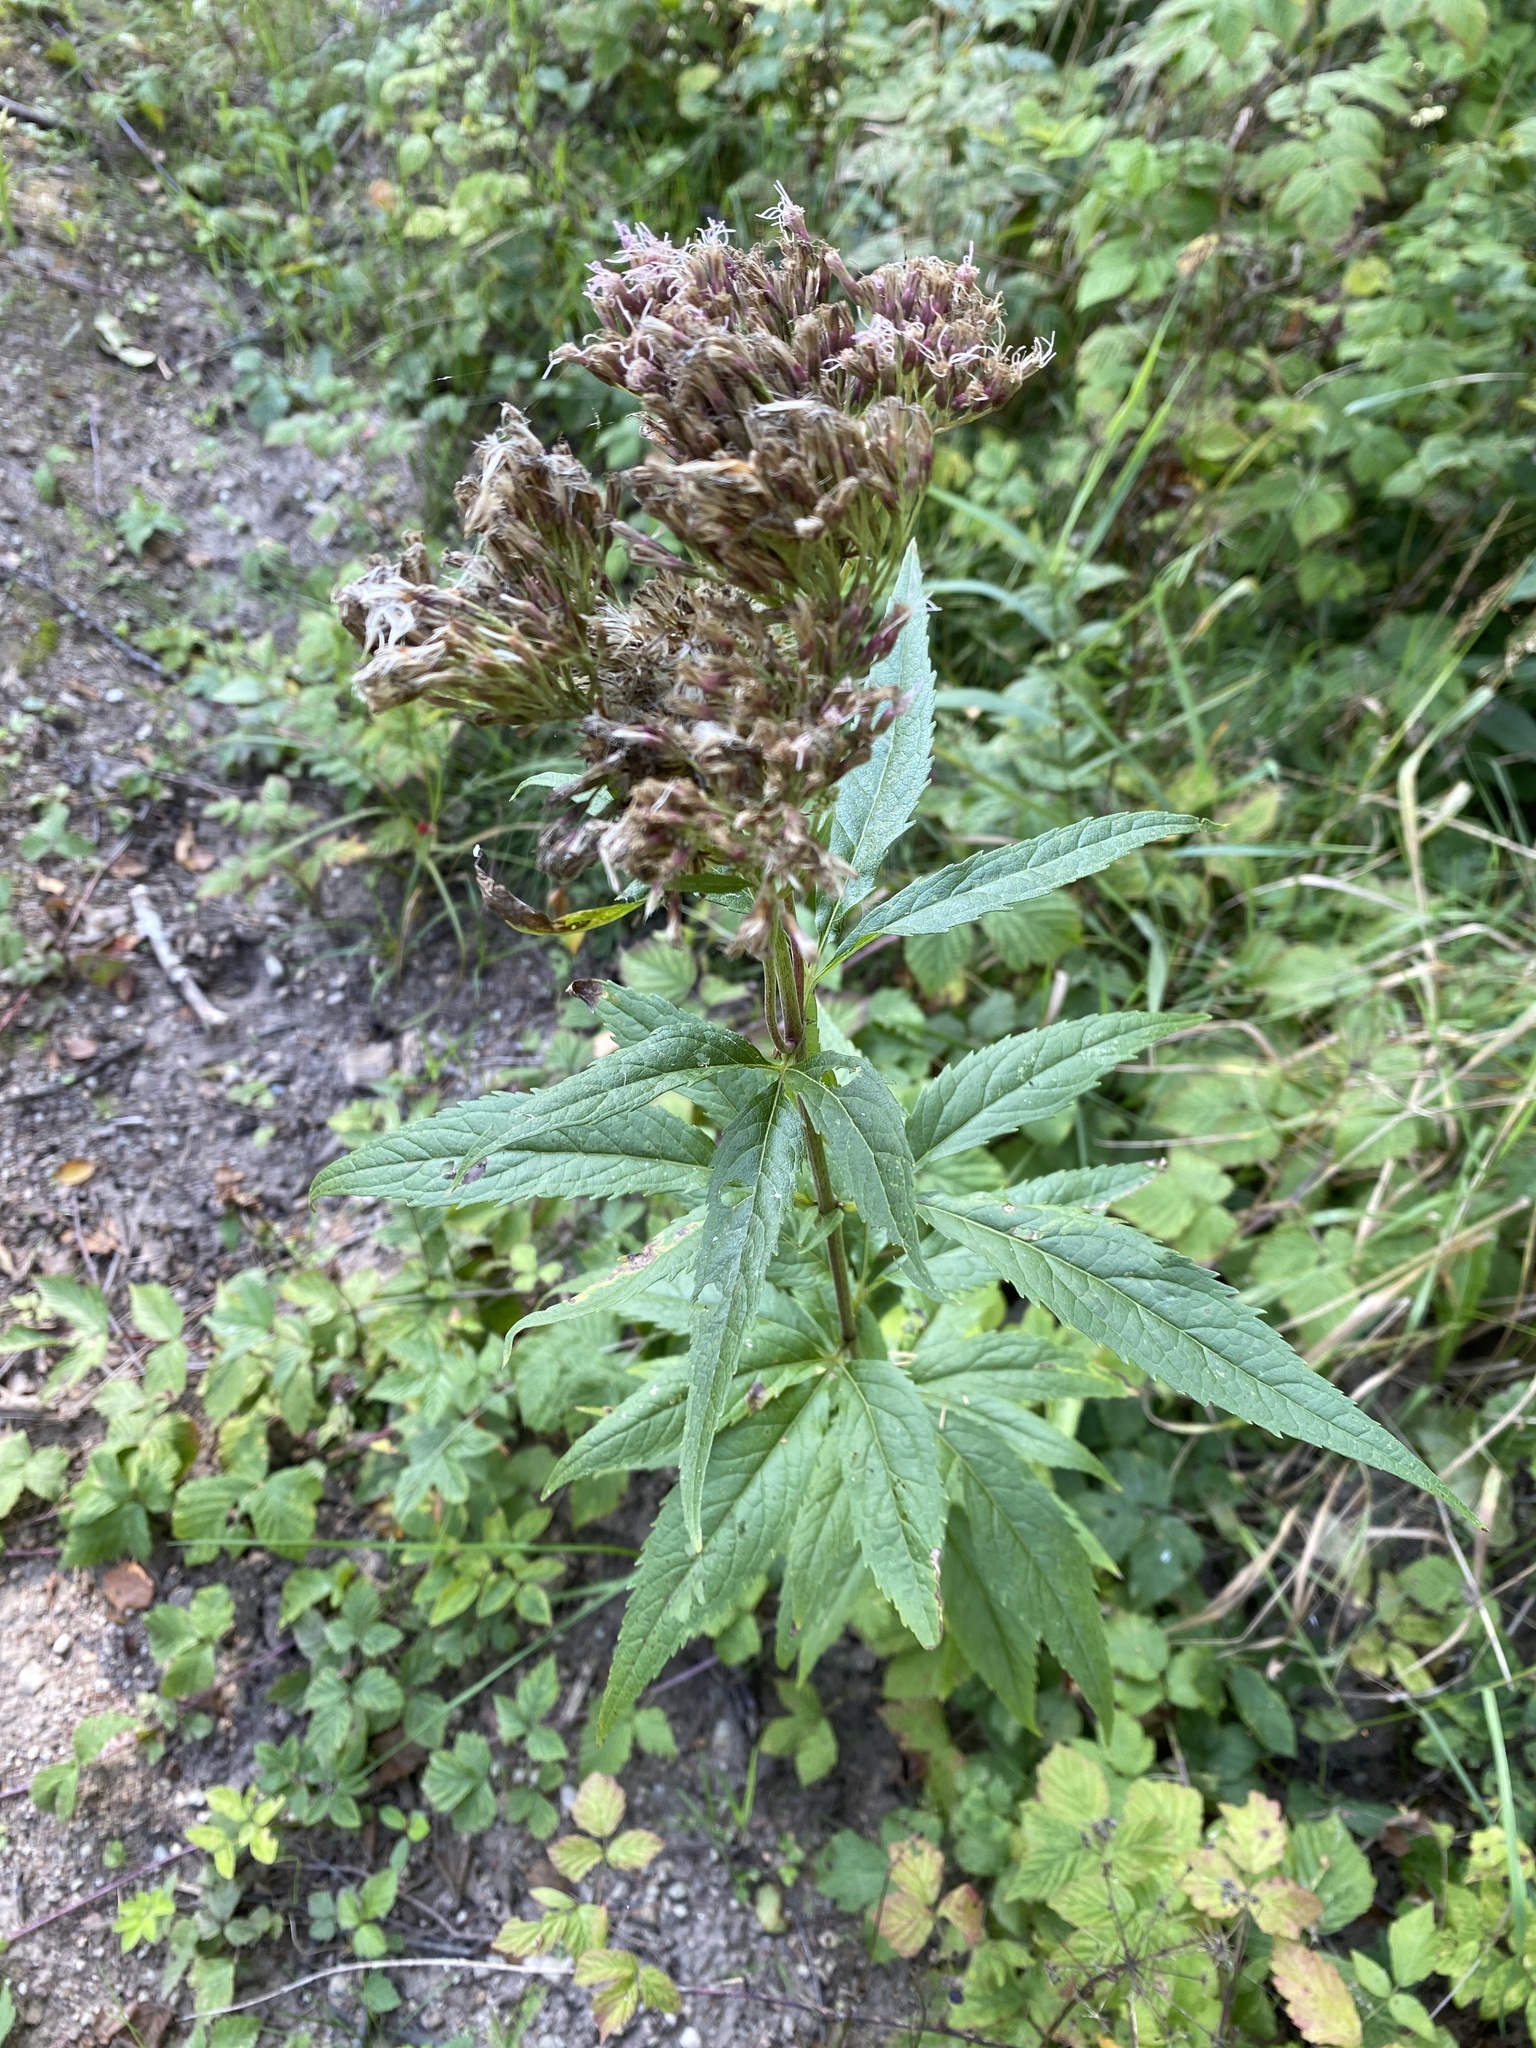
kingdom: Plantae
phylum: Tracheophyta
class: Magnoliopsida
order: Asterales
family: Asteraceae
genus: Eupatorium
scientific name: Eupatorium cannabinum
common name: Hemp-agrimony
